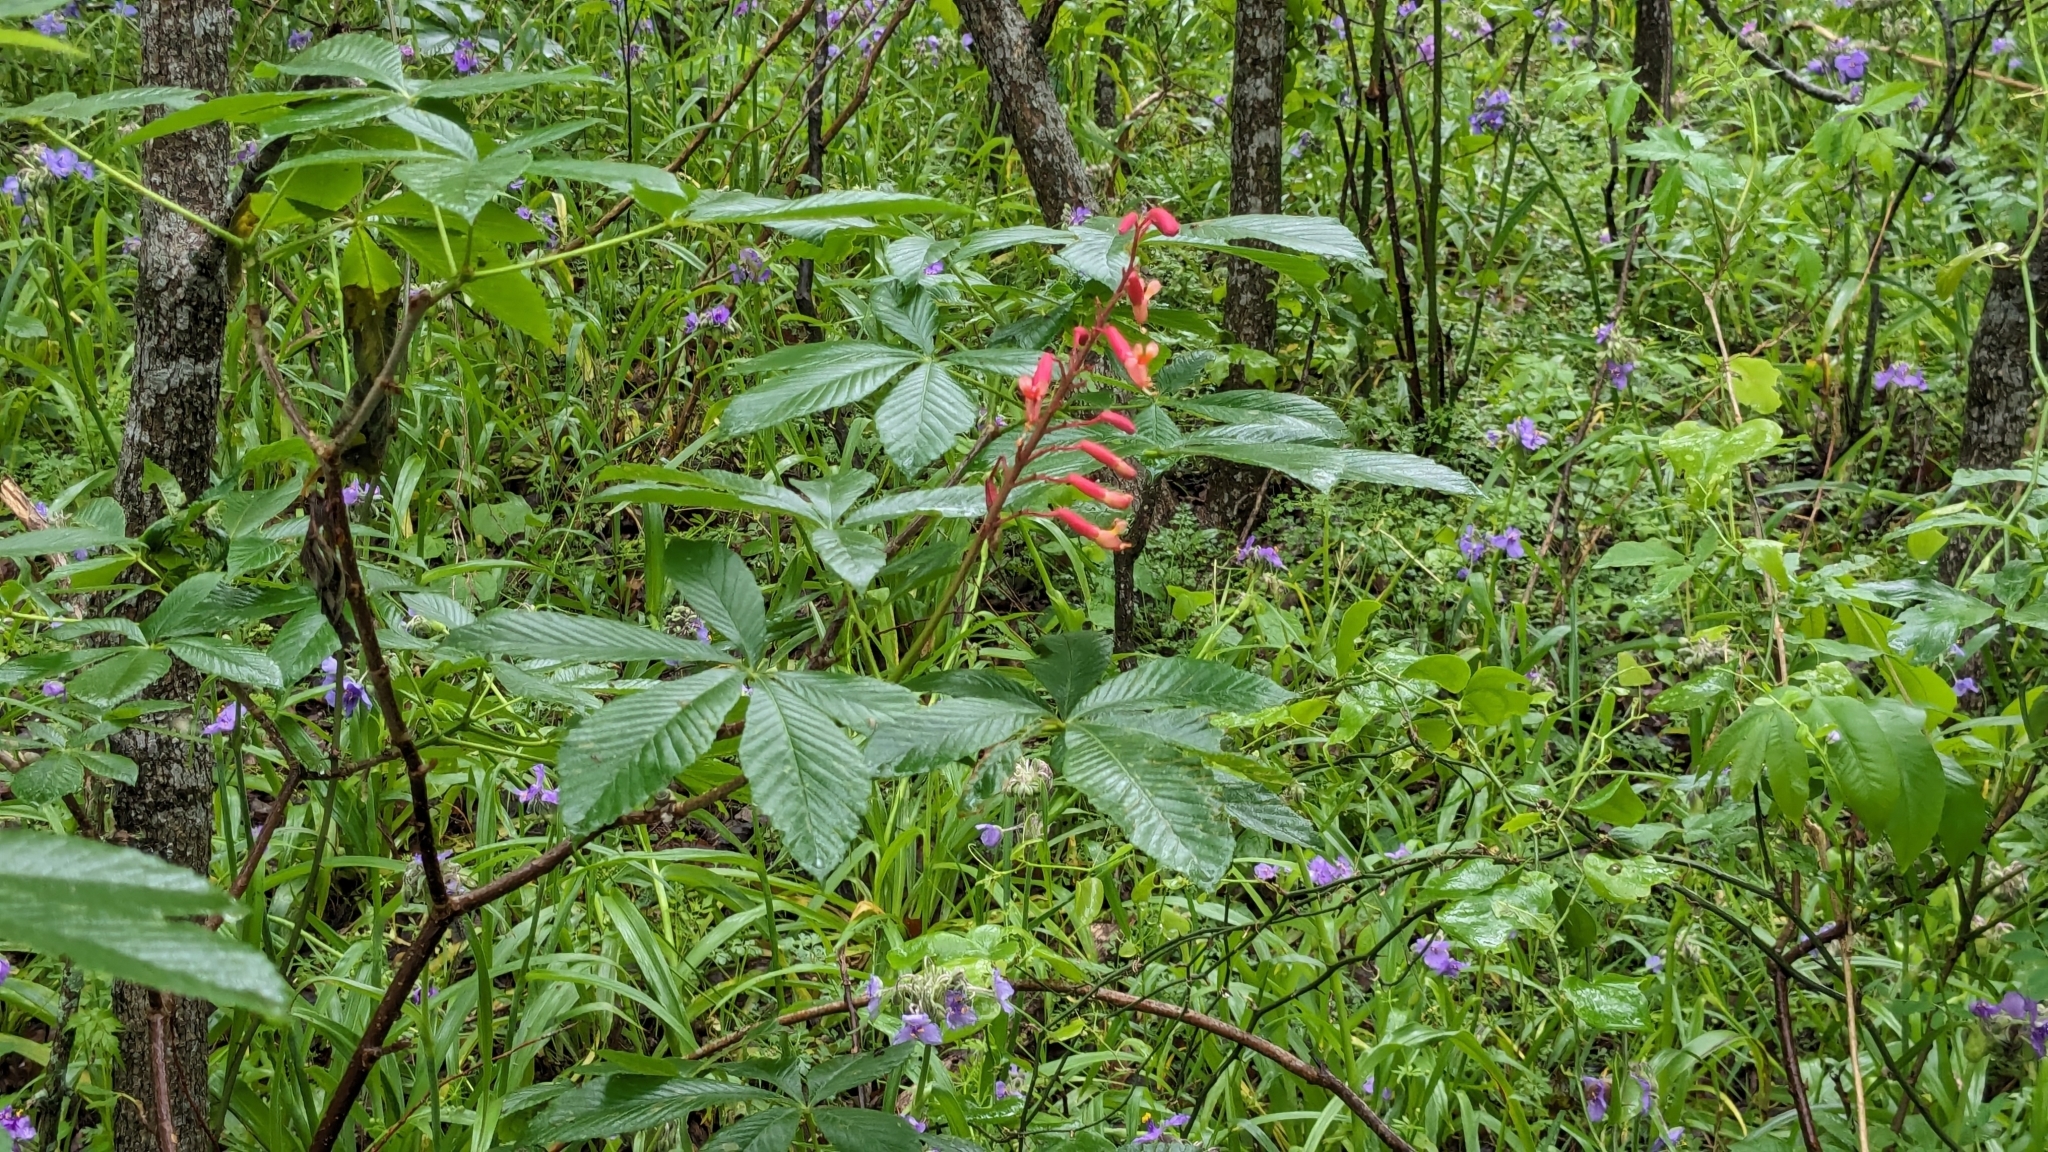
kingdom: Plantae
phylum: Tracheophyta
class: Magnoliopsida
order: Sapindales
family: Sapindaceae
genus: Aesculus
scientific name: Aesculus pavia
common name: Red buckeye
